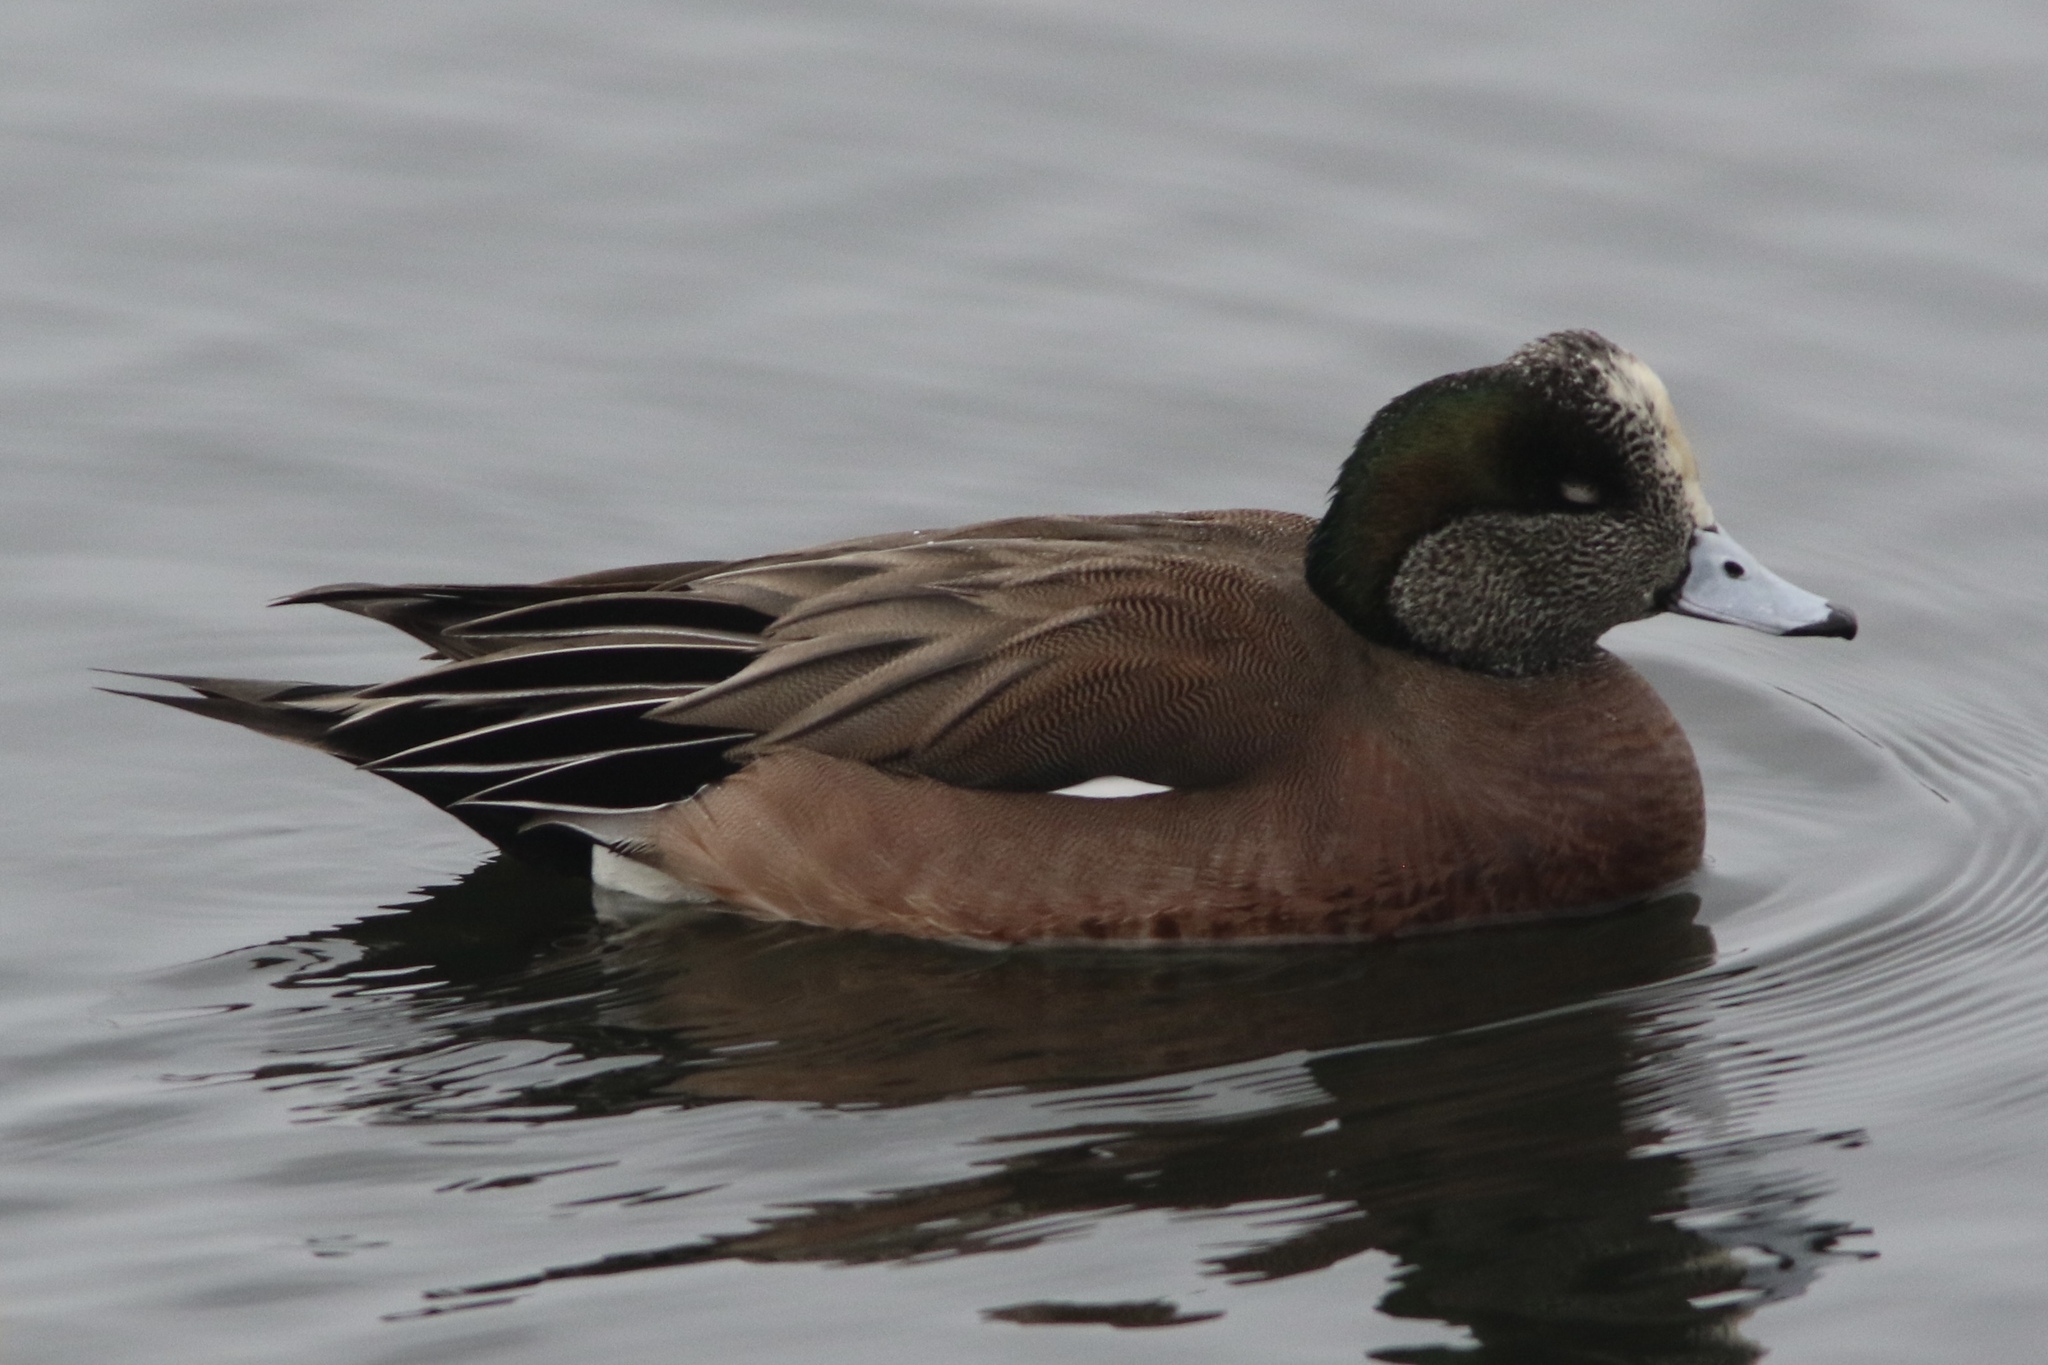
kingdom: Animalia
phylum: Chordata
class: Aves
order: Anseriformes
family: Anatidae
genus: Mareca
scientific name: Mareca americana
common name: American wigeon
